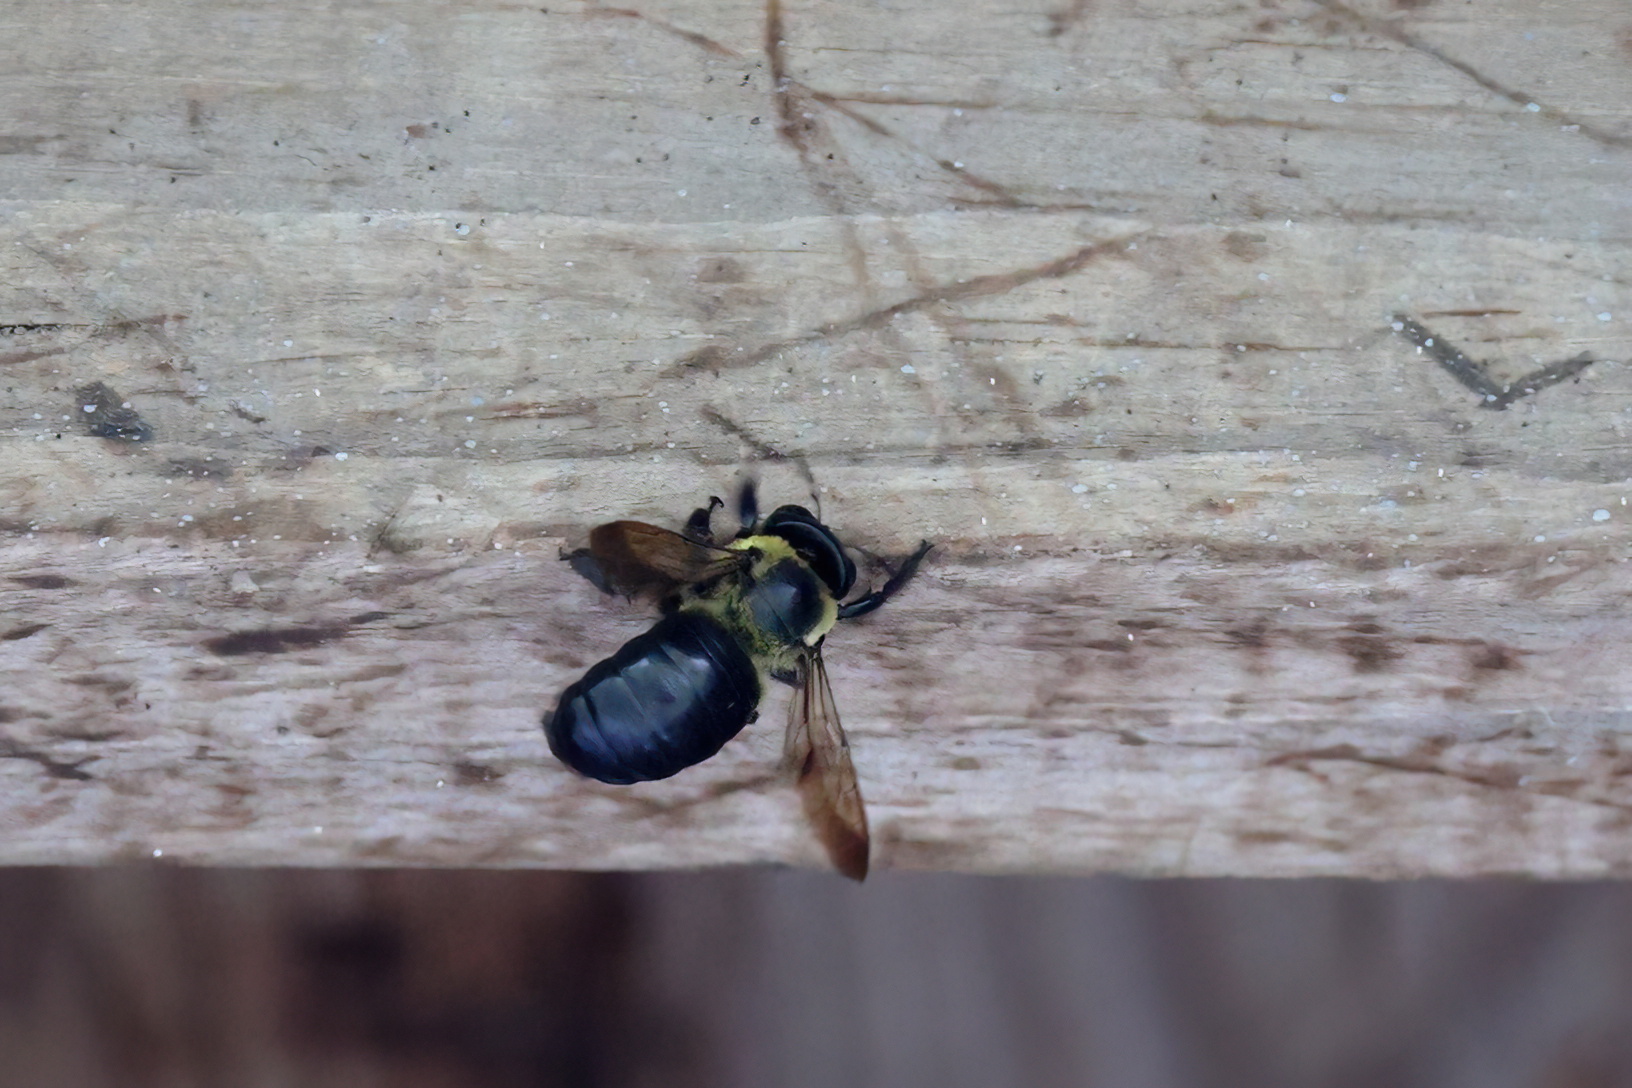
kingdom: Animalia
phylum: Arthropoda
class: Insecta
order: Hymenoptera
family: Apidae
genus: Xylocopa
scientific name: Xylocopa virginica
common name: Carpenter bee
